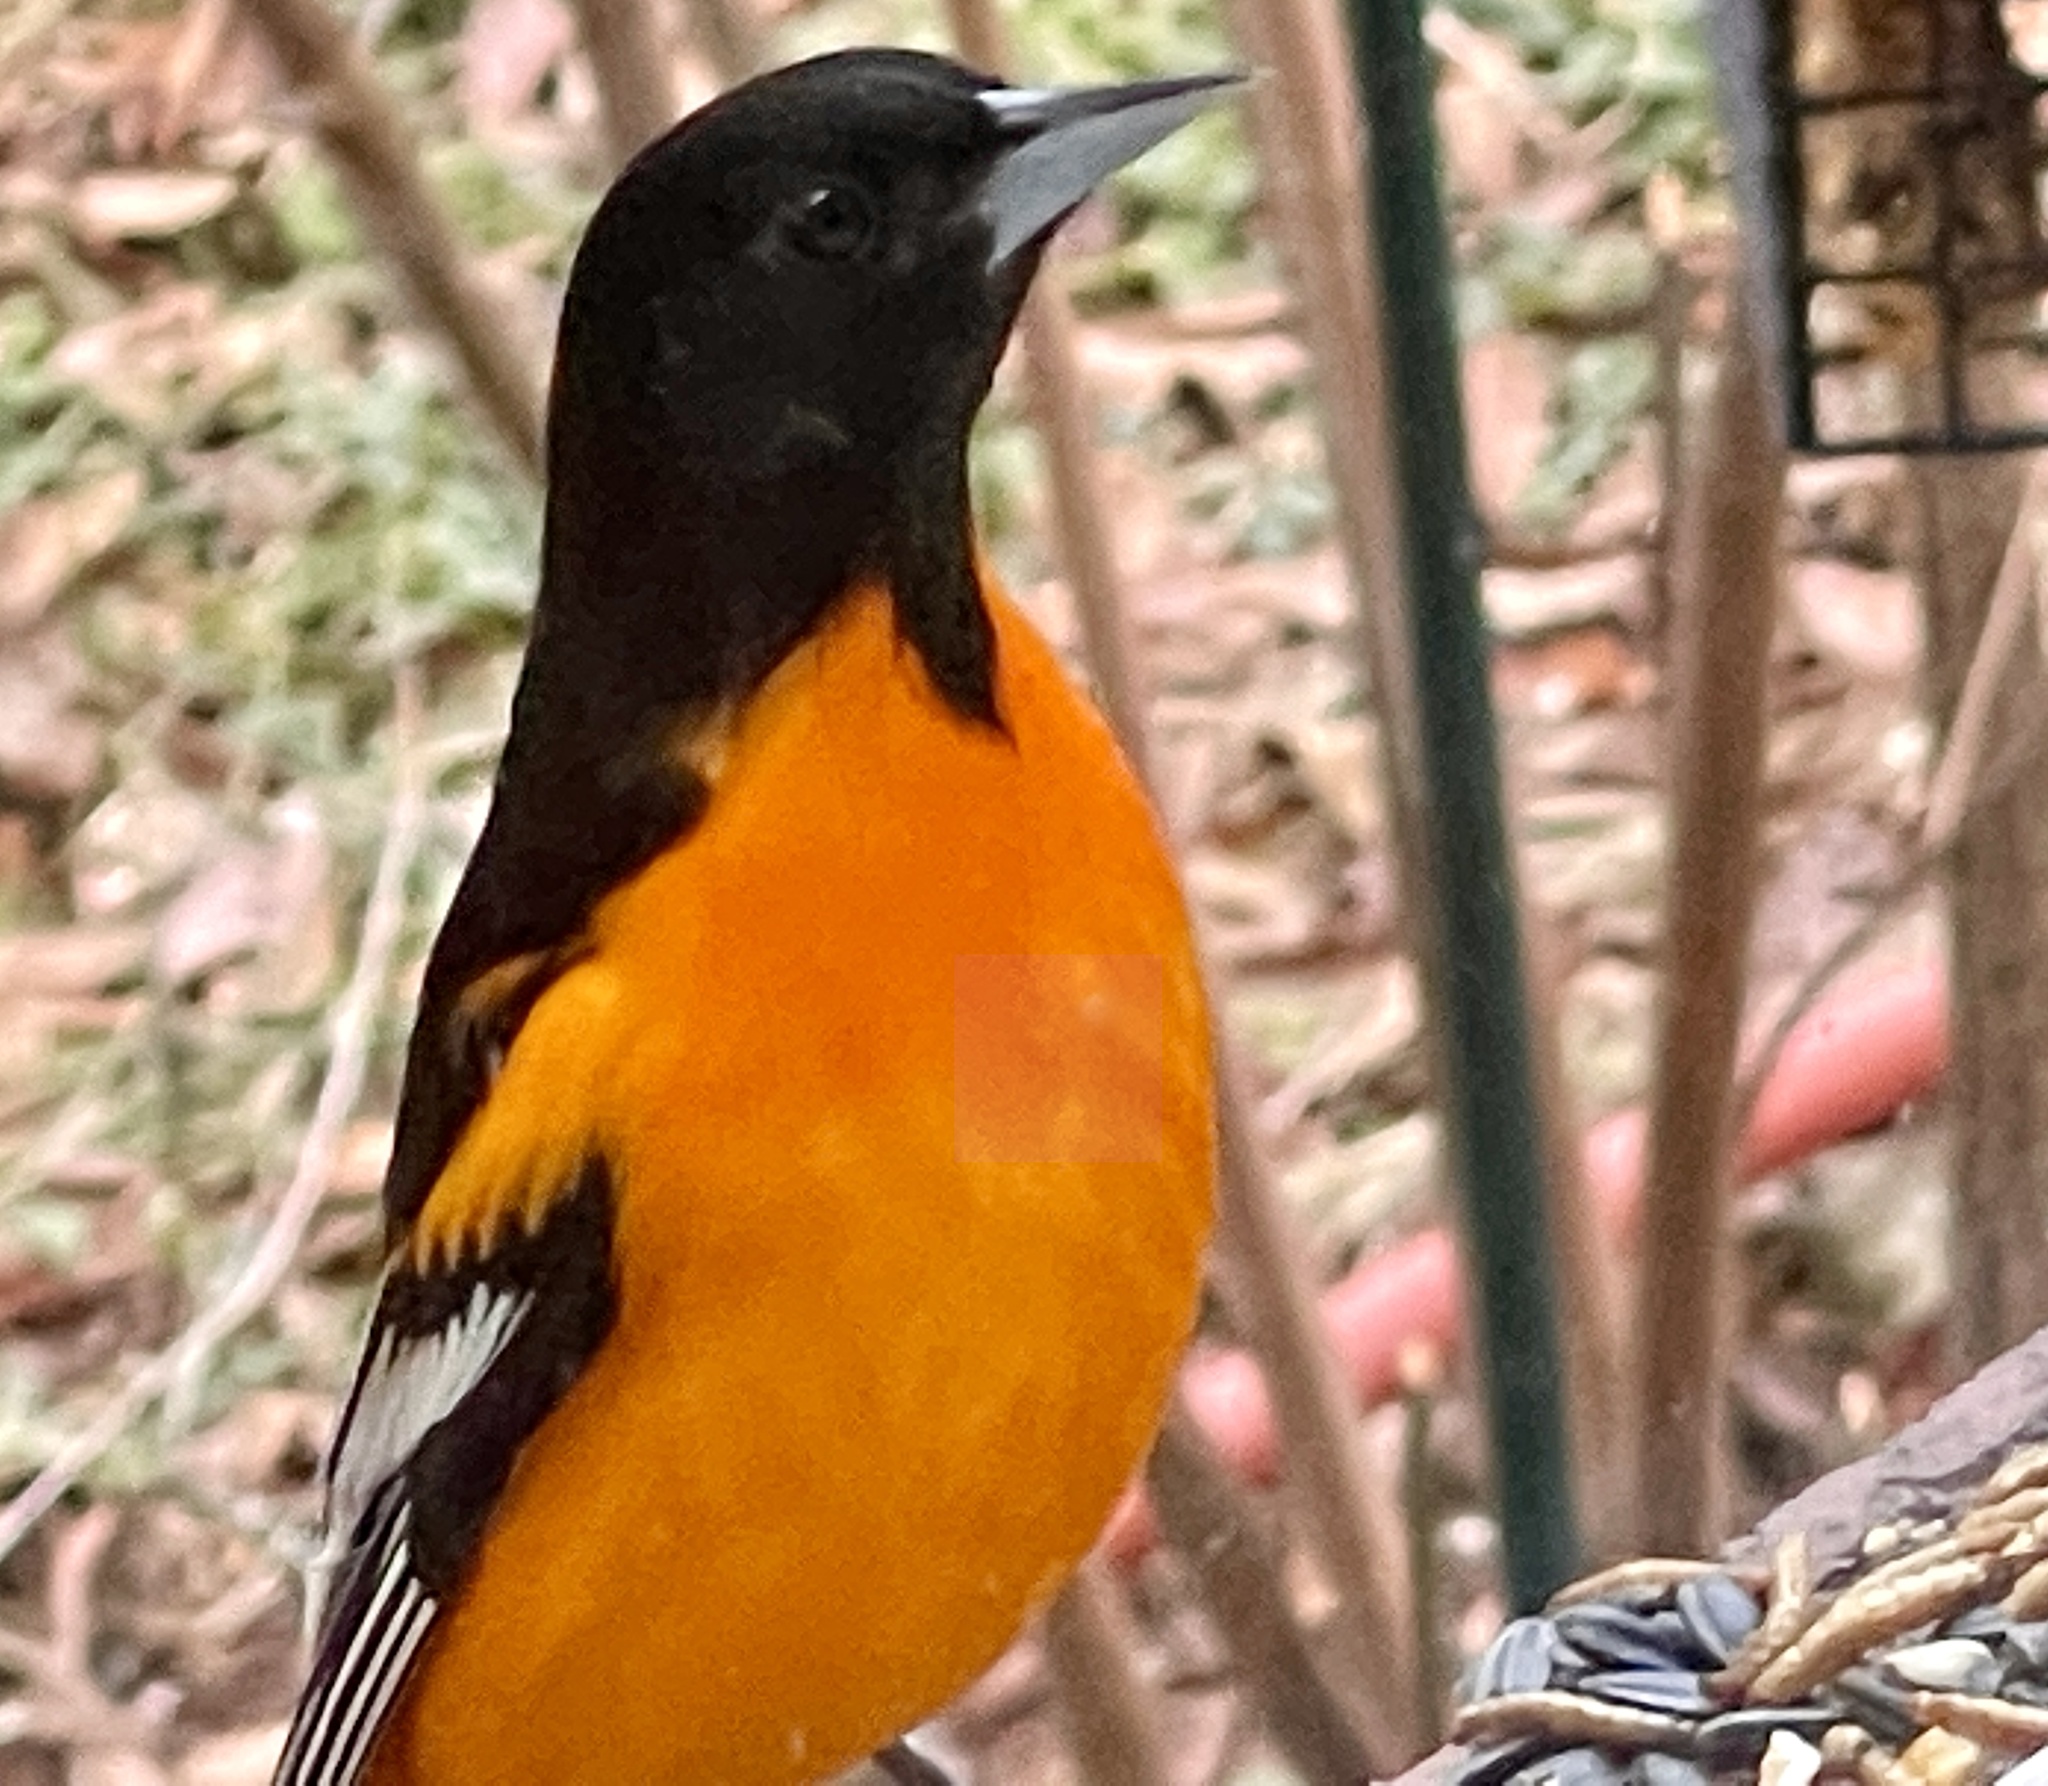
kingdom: Animalia
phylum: Chordata
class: Aves
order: Passeriformes
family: Icteridae
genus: Icterus
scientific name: Icterus galbula
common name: Baltimore oriole
